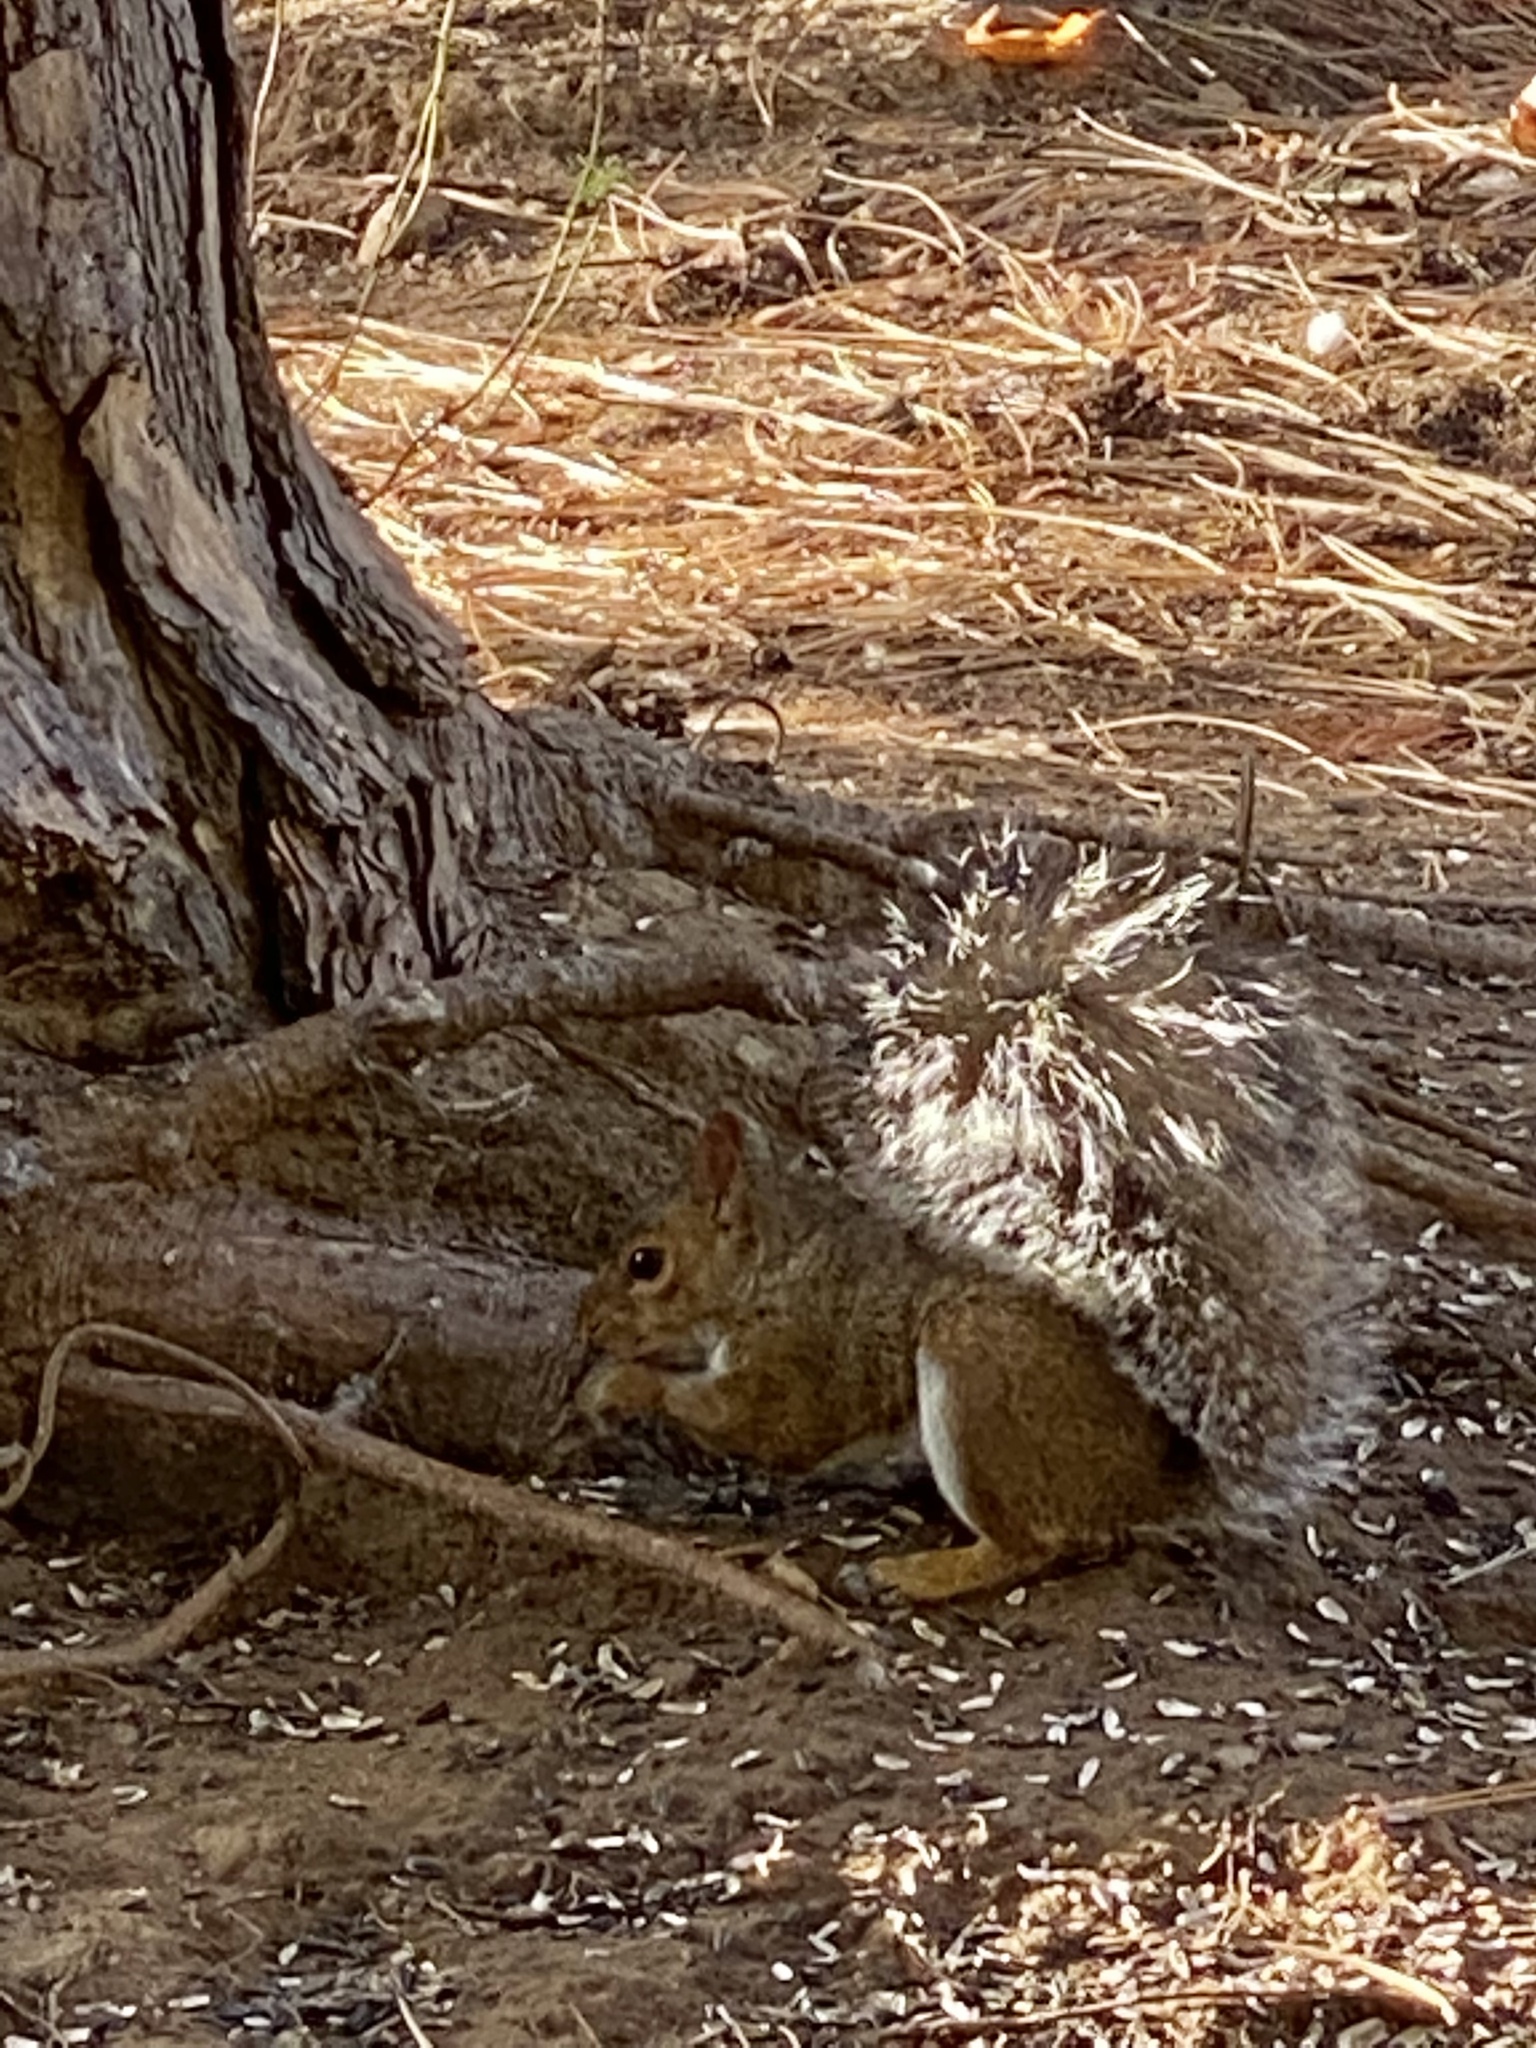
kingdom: Animalia
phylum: Chordata
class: Mammalia
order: Rodentia
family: Sciuridae
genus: Sciurus
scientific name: Sciurus carolinensis
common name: Eastern gray squirrel
